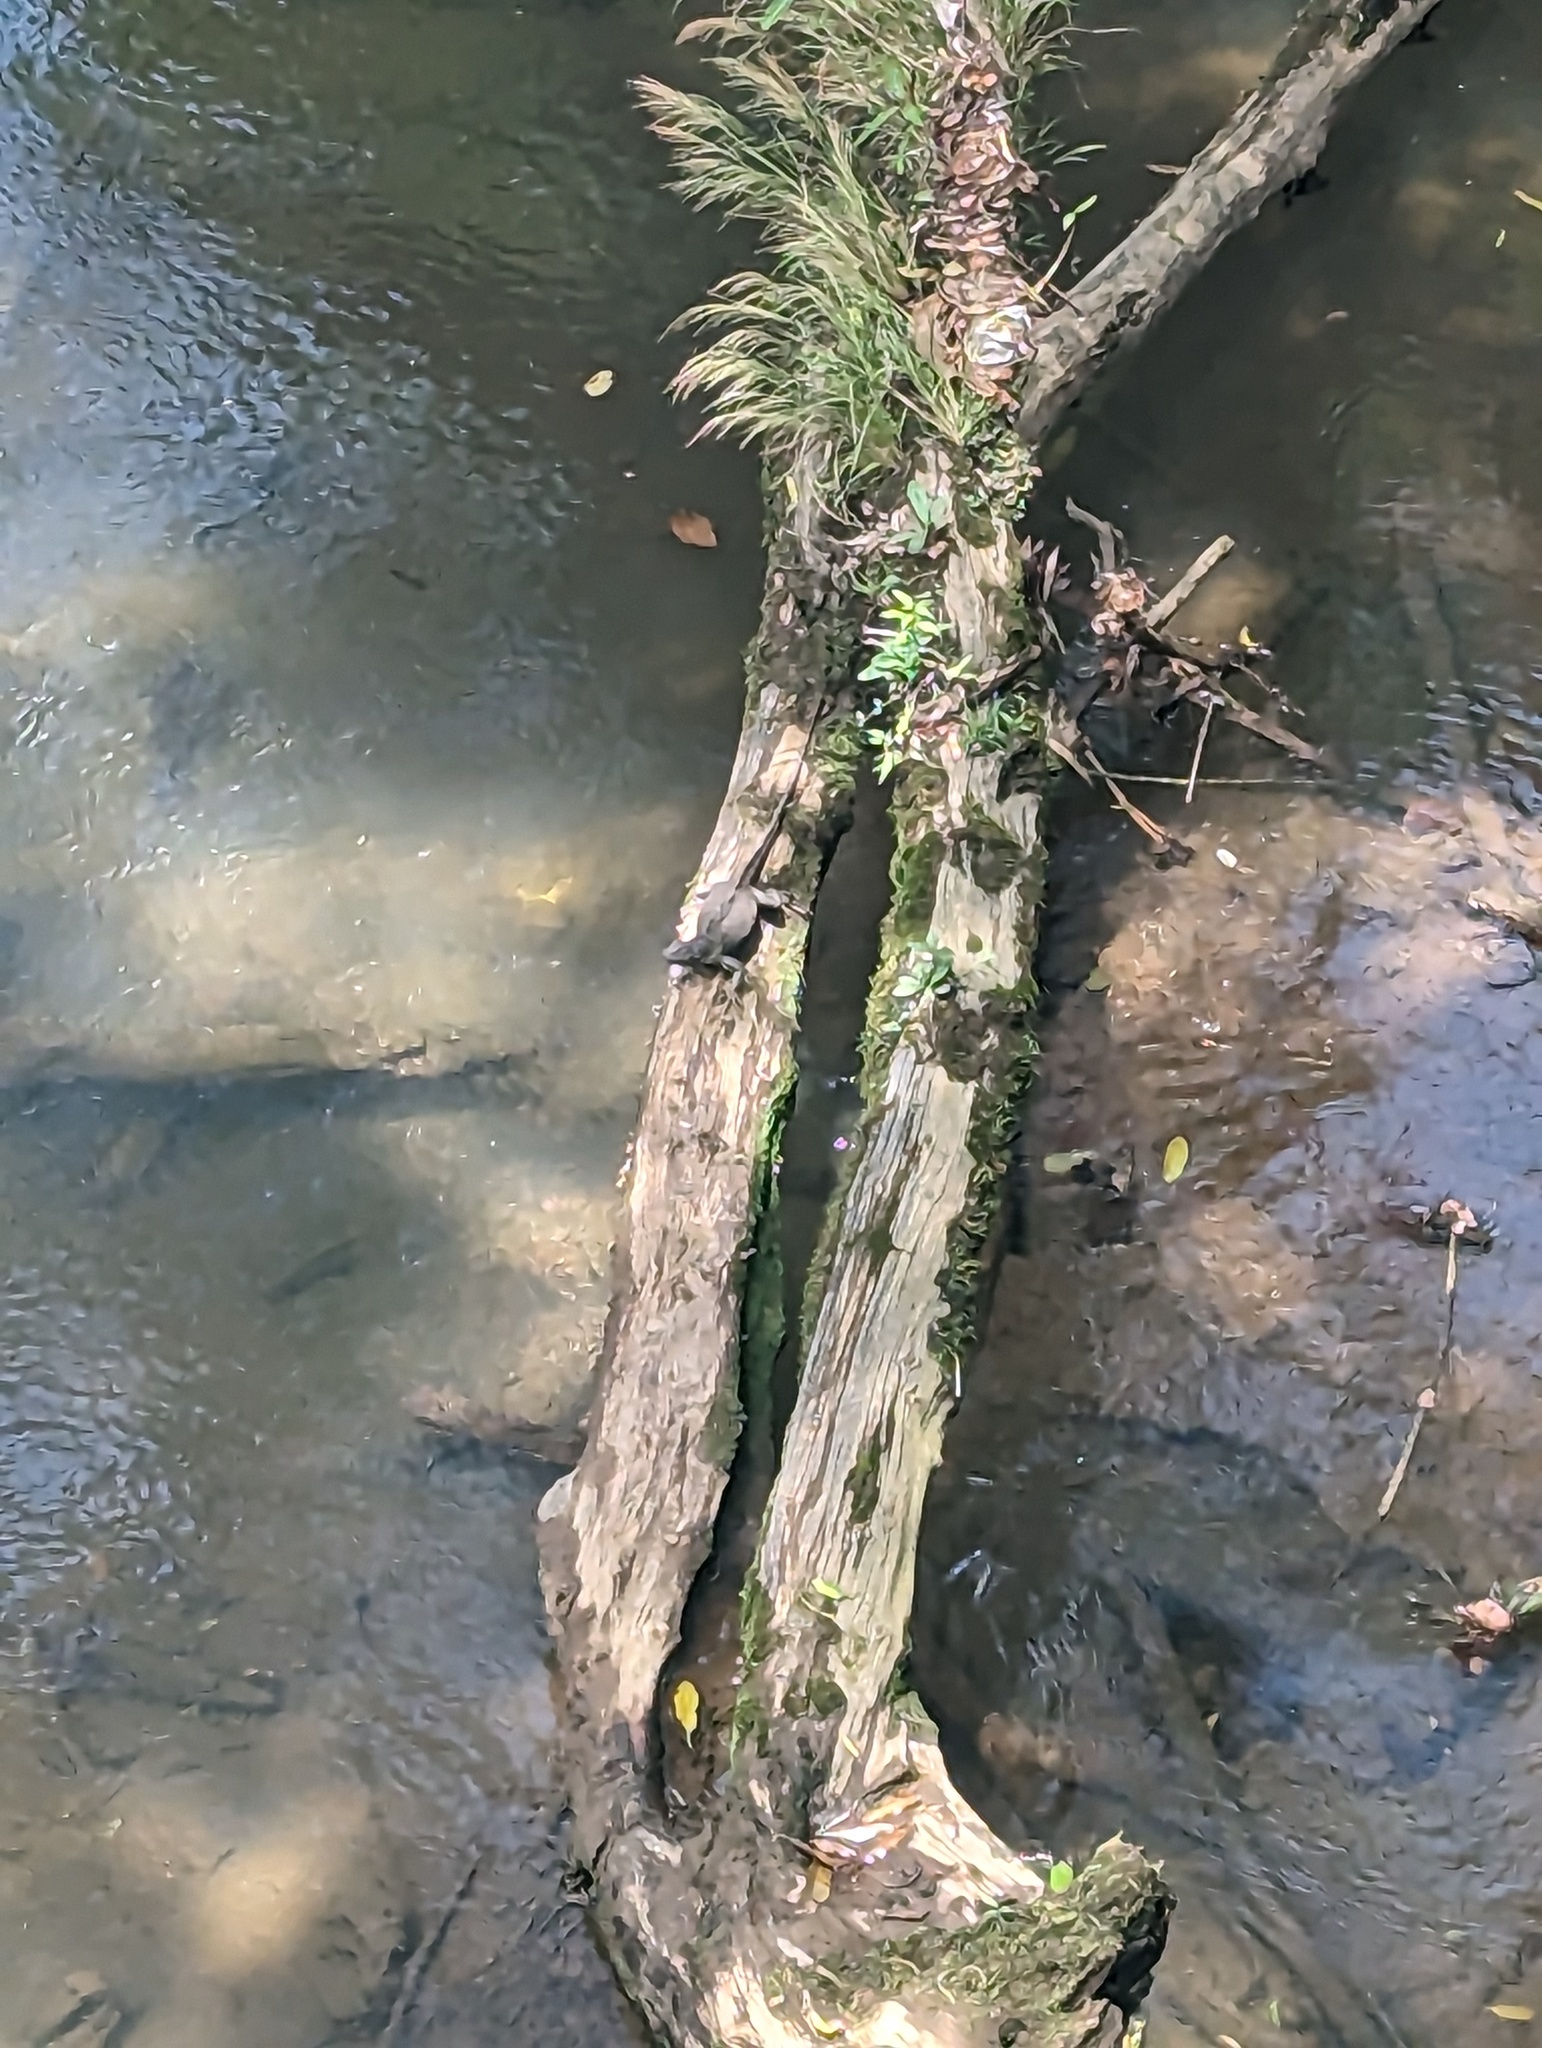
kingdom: Animalia
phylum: Chordata
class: Squamata
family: Iguanidae
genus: Iguana
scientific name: Iguana iguana
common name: Green iguana
